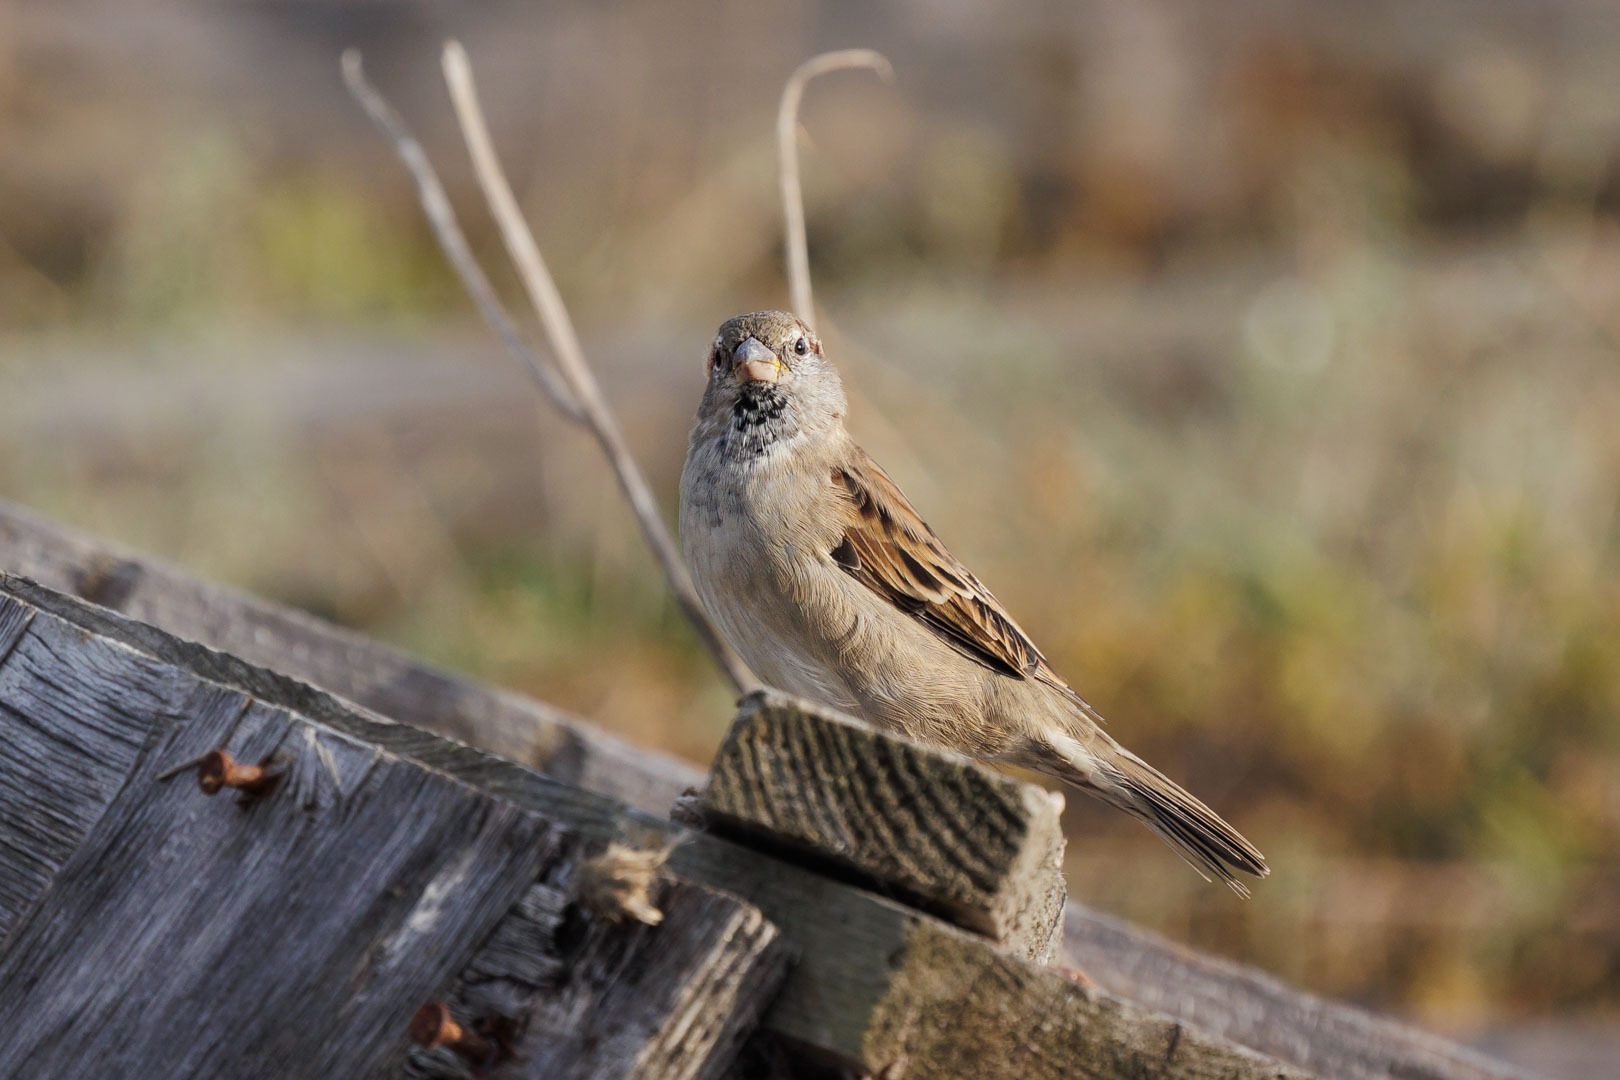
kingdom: Animalia
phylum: Chordata
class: Aves
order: Passeriformes
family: Passeridae
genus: Passer
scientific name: Passer domesticus
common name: House sparrow
